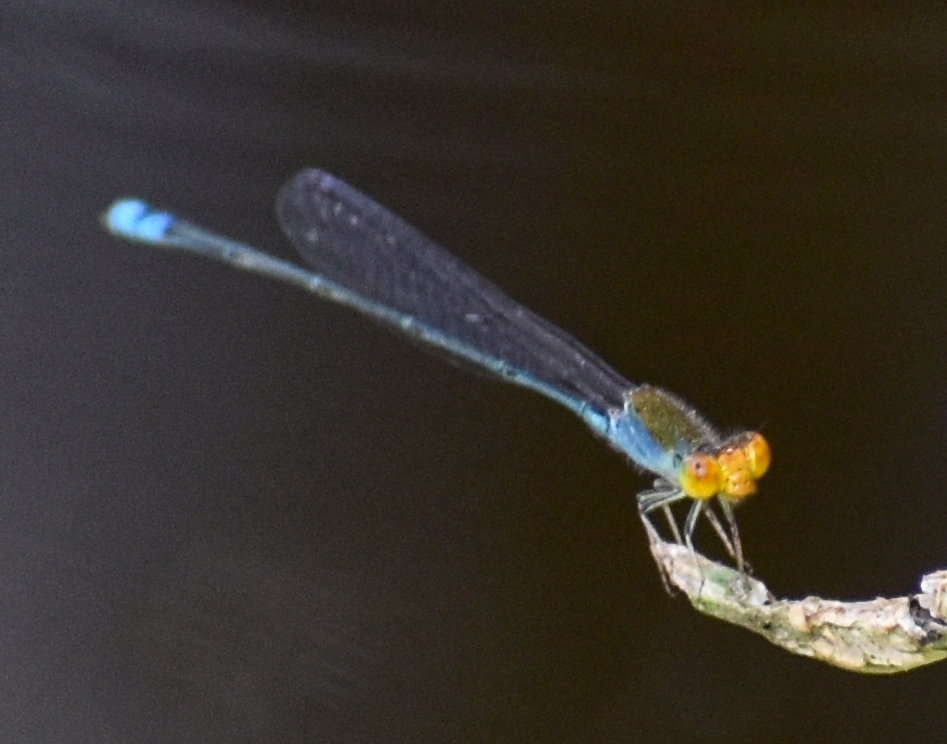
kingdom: Animalia
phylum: Arthropoda
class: Insecta
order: Odonata
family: Coenagrionidae
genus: Pseudagrion
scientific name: Pseudagrion rubriceps
